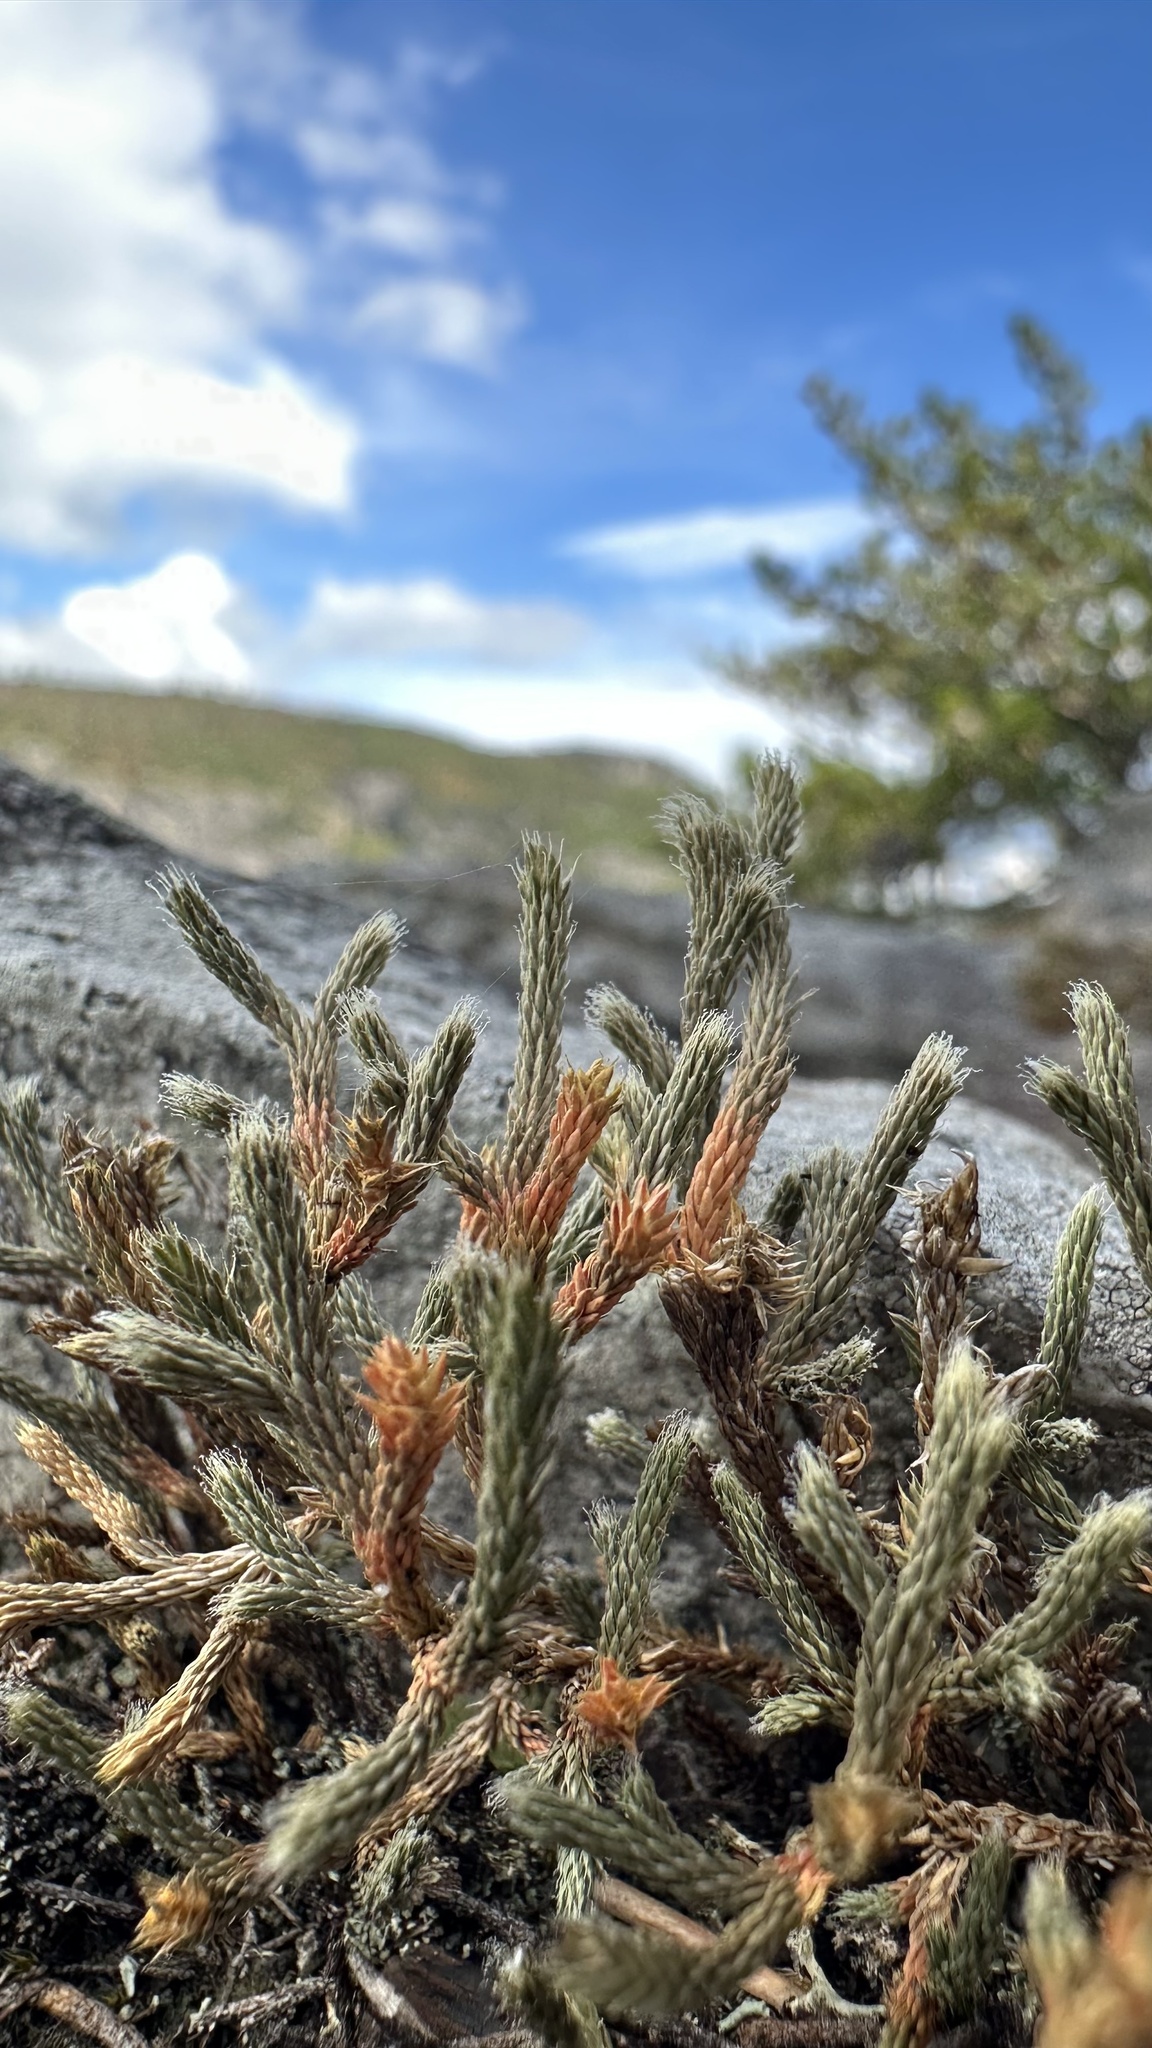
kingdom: Plantae
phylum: Tracheophyta
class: Lycopodiopsida
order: Selaginellales
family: Selaginellaceae
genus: Selaginella
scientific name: Selaginella tortipila
